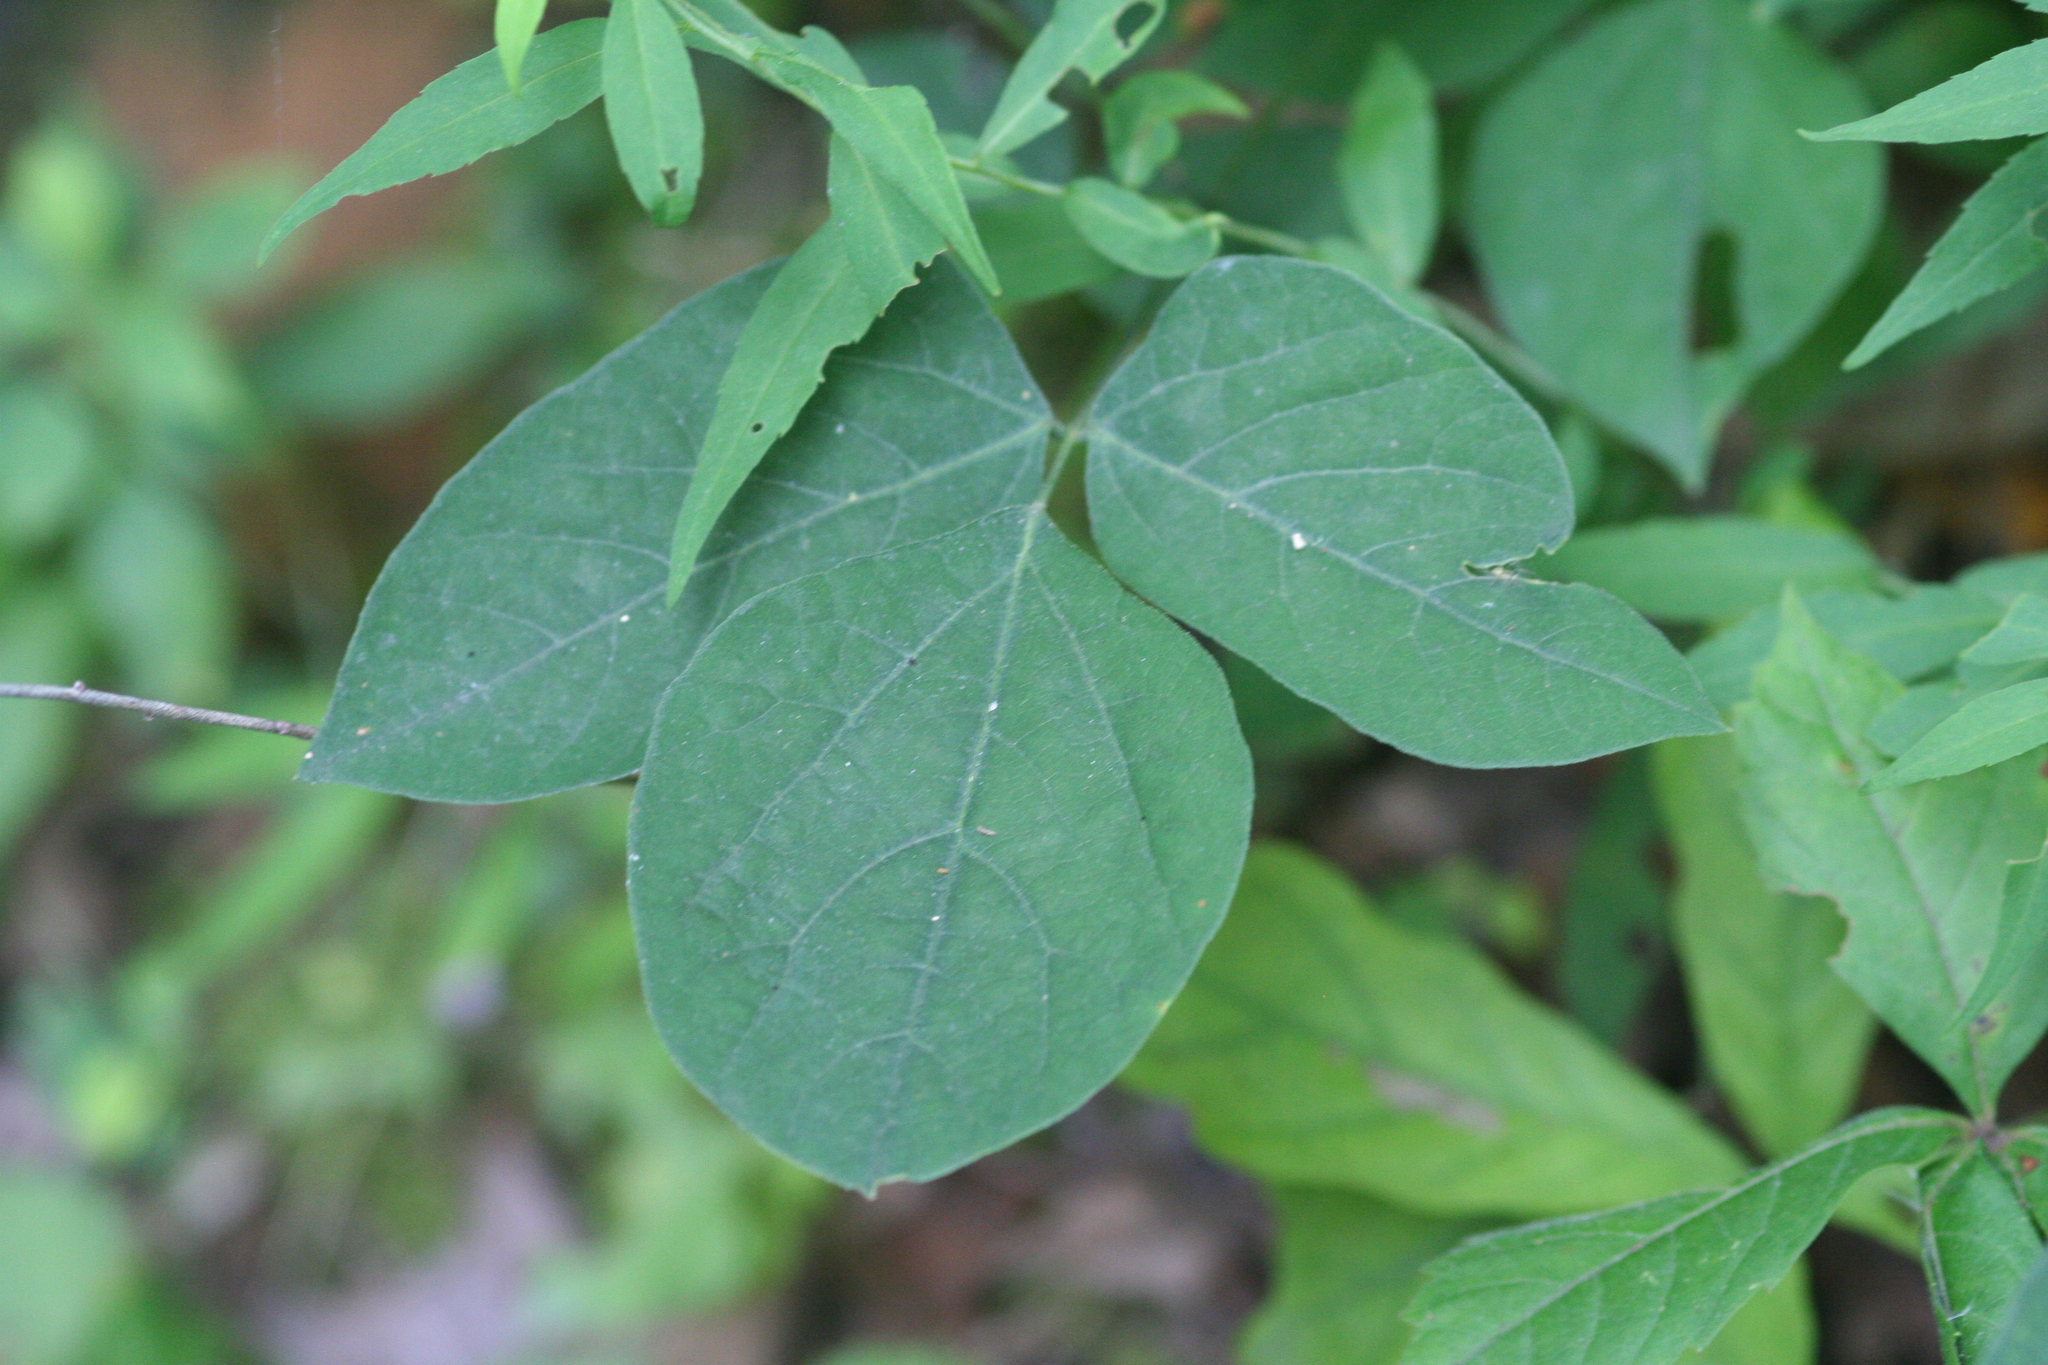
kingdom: Plantae
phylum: Tracheophyta
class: Magnoliopsida
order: Fabales
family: Fabaceae
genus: Hylodesmum
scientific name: Hylodesmum nudiflorum
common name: Bare-stemmed tick-trefoil
